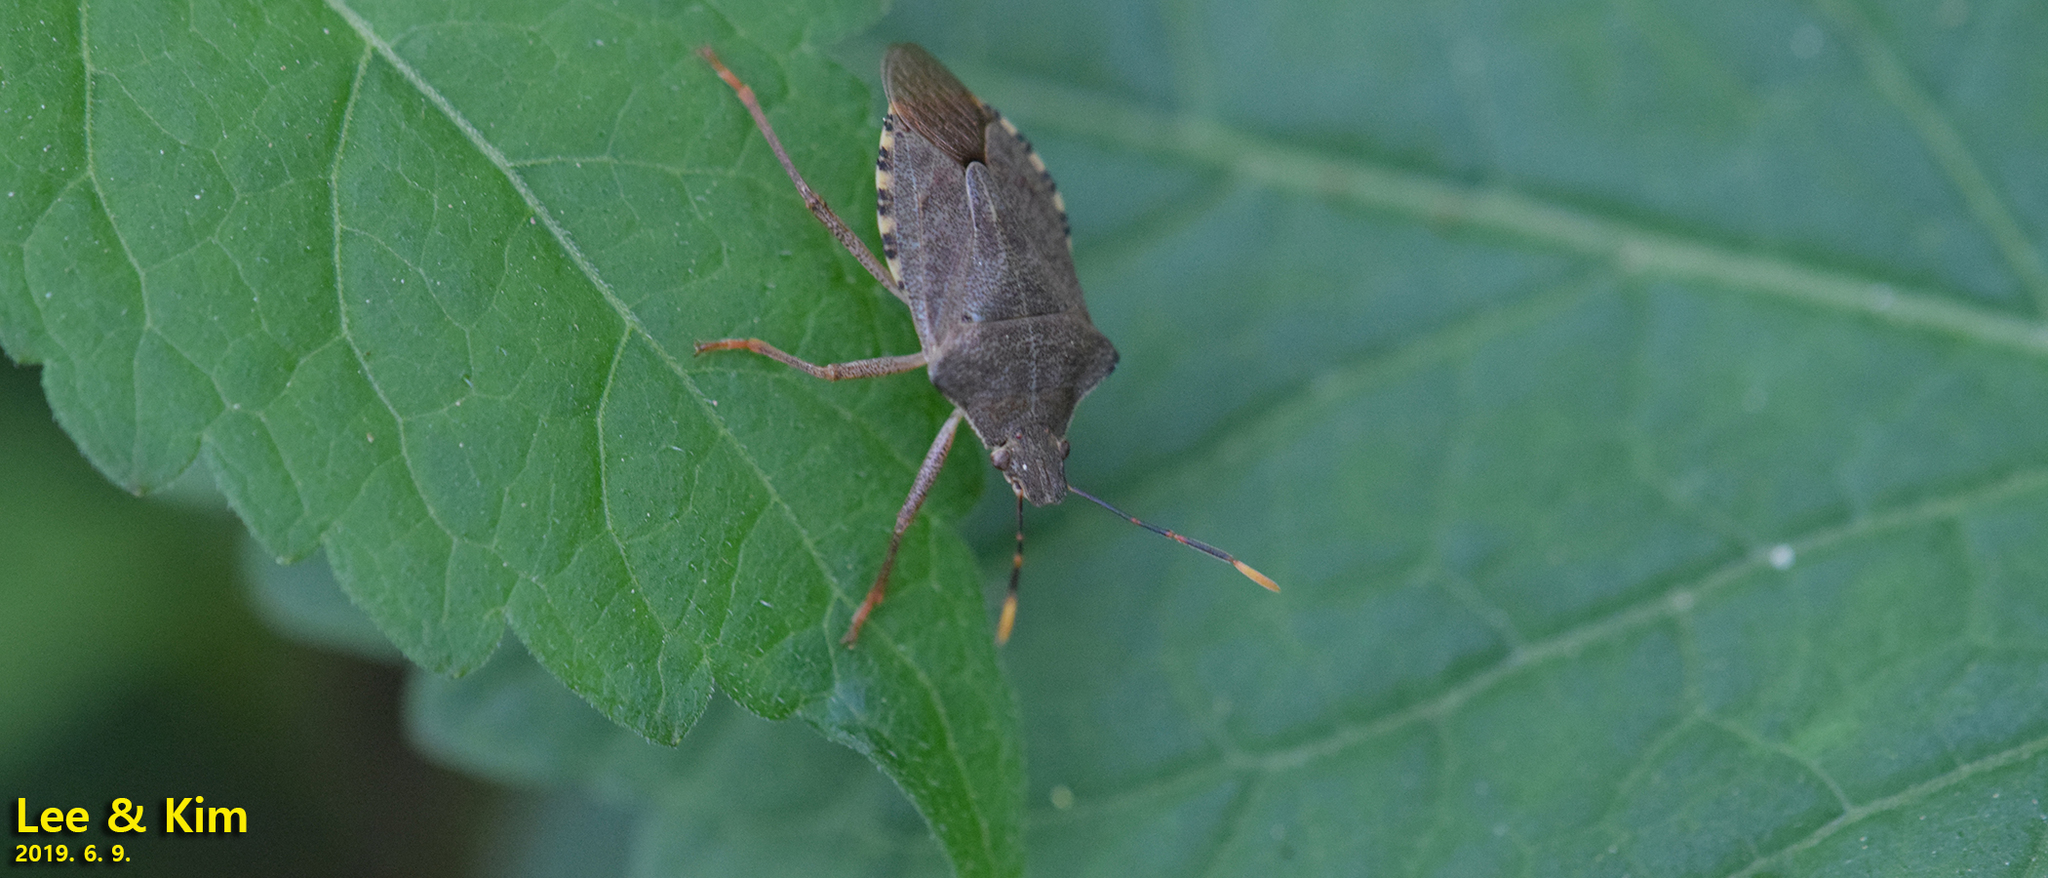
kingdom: Animalia
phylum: Arthropoda
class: Insecta
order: Hemiptera
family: Pentatomidae
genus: Arma
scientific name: Arma custos
